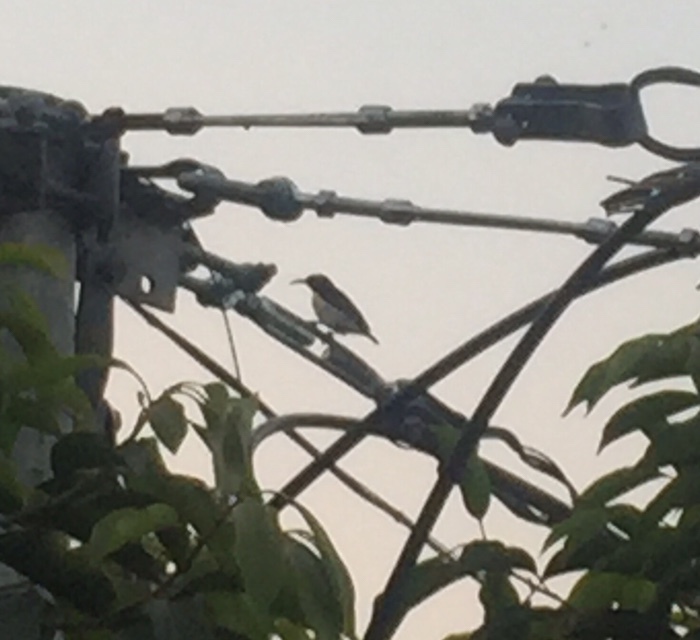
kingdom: Animalia
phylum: Chordata
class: Aves
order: Passeriformes
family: Nectariniidae
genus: Leptocoma
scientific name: Leptocoma zeylonica
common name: Purple-rumped sunbird
